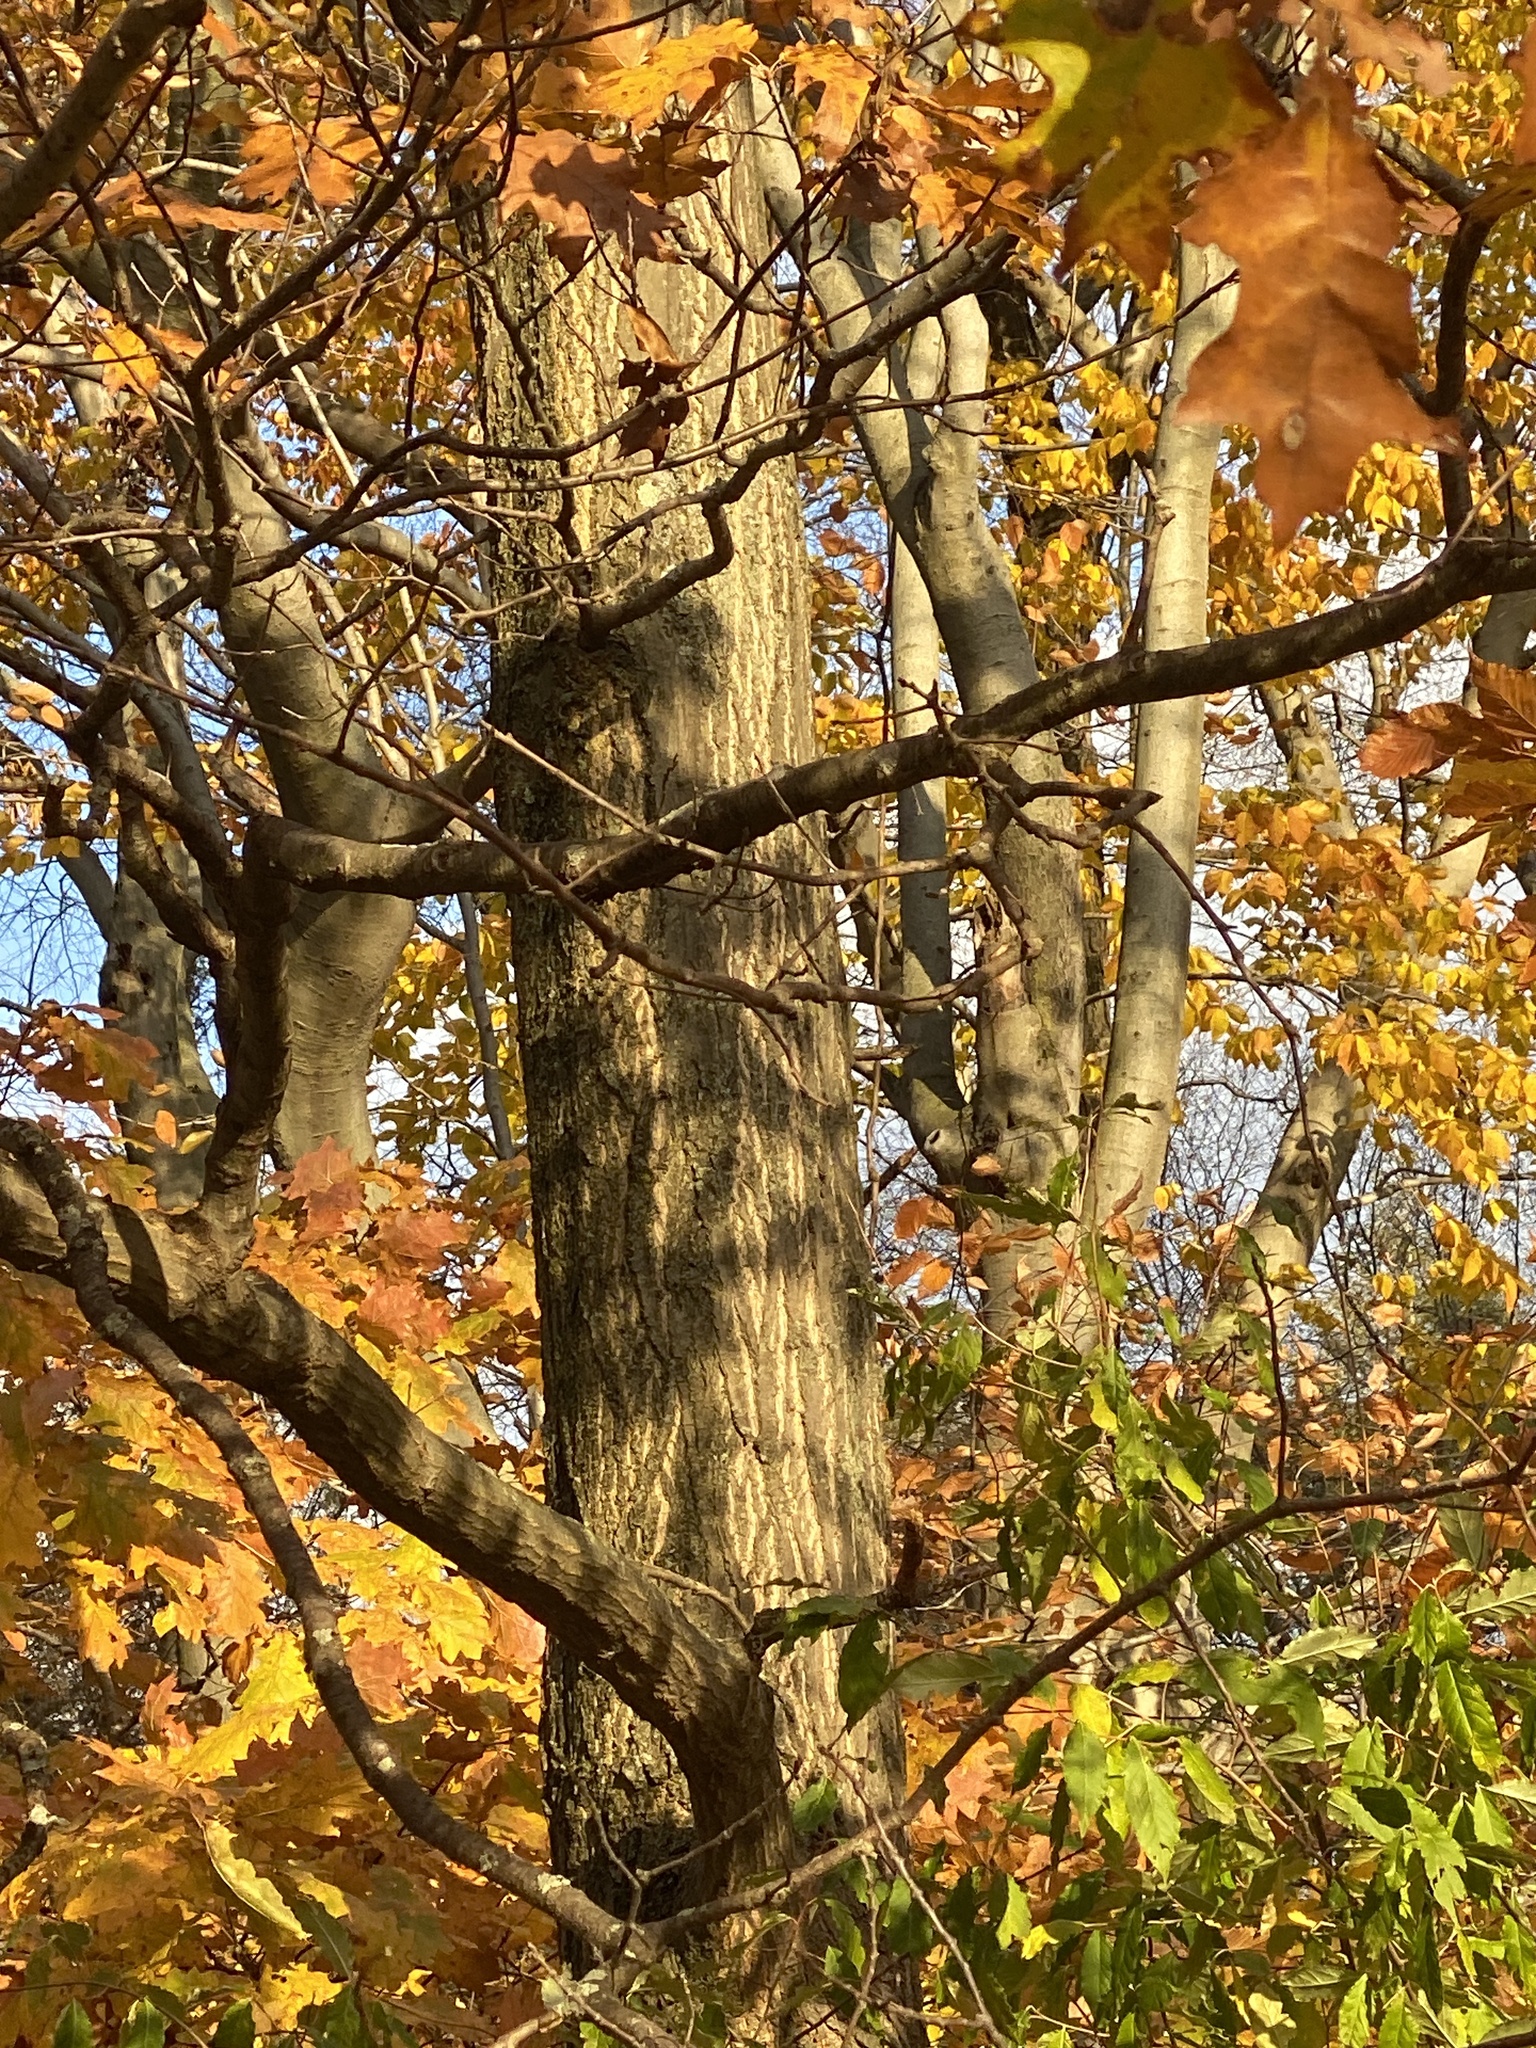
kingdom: Plantae
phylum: Tracheophyta
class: Magnoliopsida
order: Fagales
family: Fagaceae
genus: Quercus
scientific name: Quercus rubra
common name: Red oak
